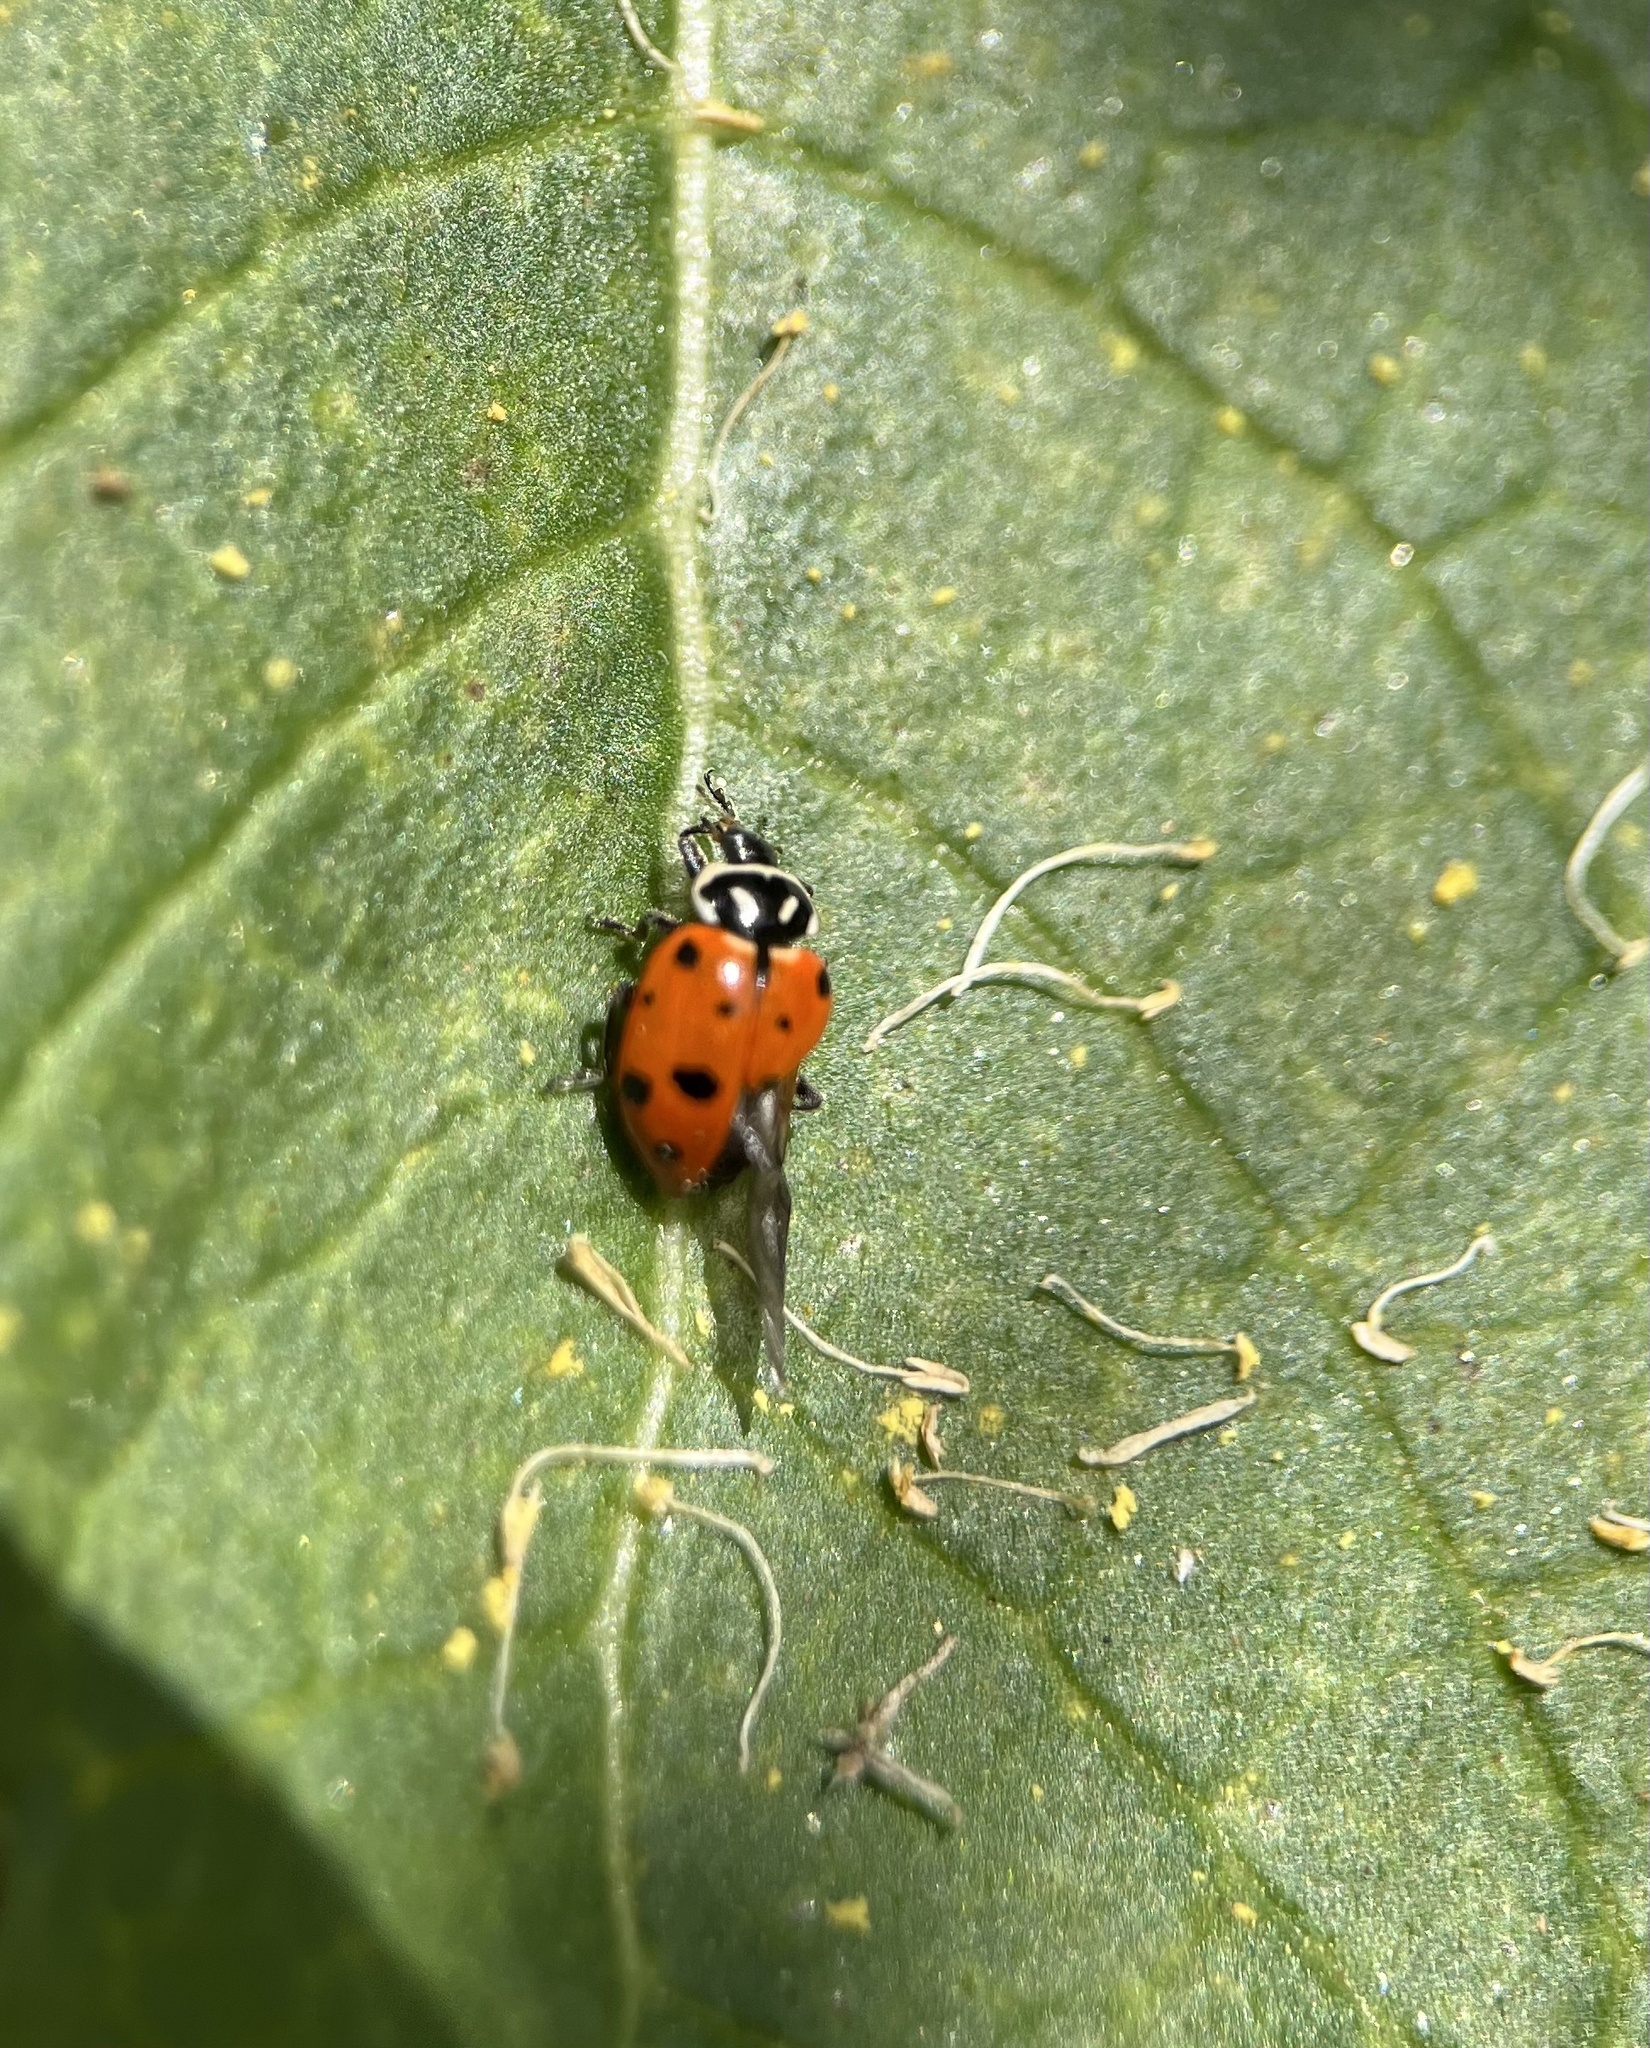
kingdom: Animalia
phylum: Arthropoda
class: Insecta
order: Coleoptera
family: Coccinellidae
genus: Hippodamia
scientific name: Hippodamia convergens
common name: Convergent lady beetle
